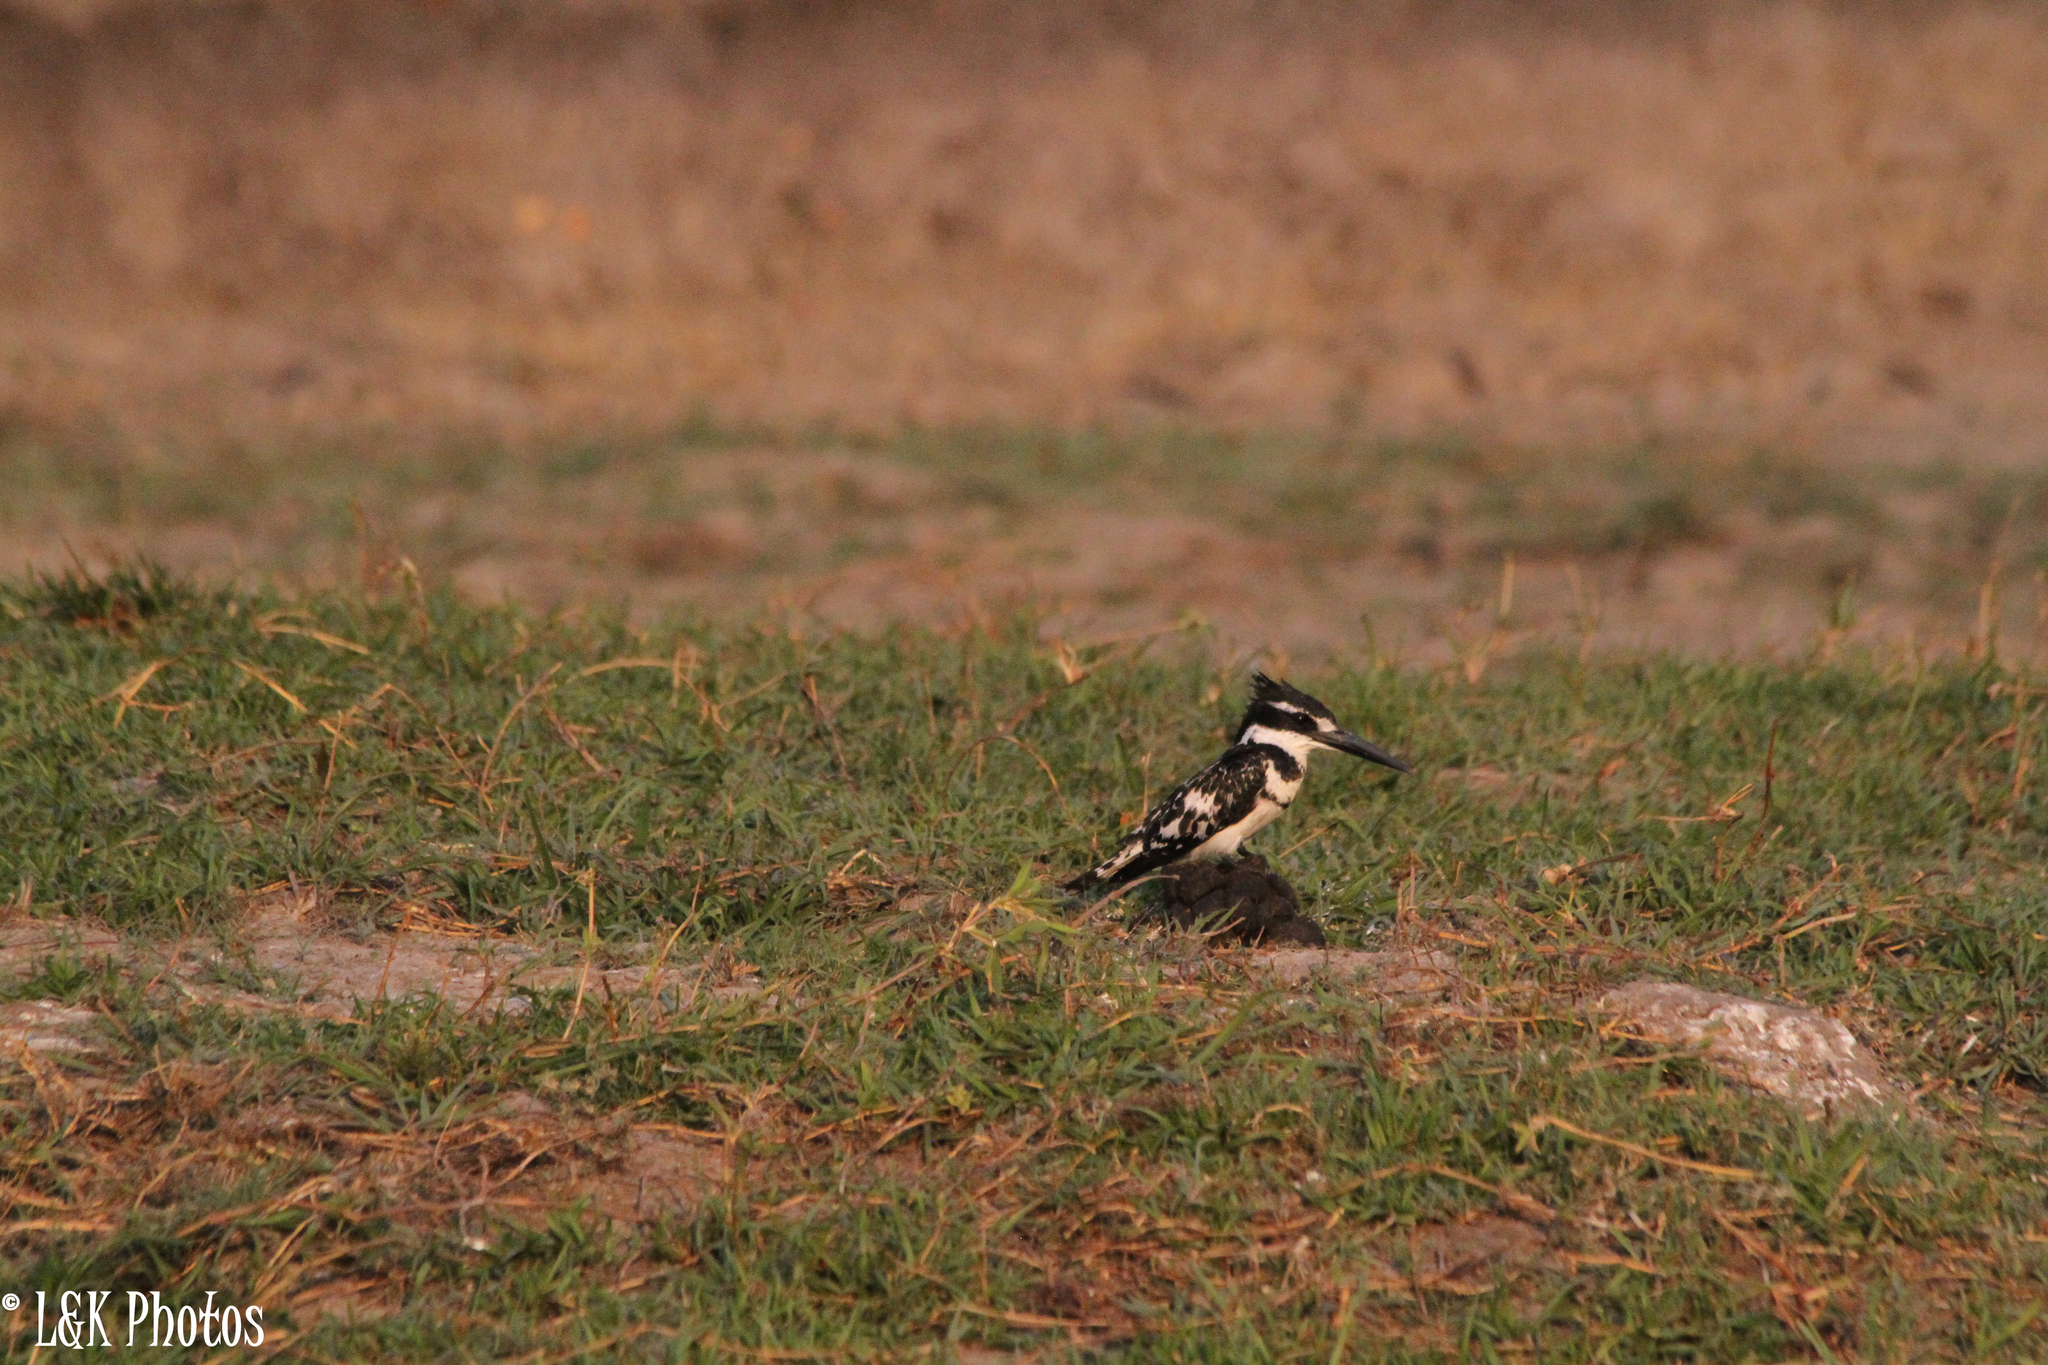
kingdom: Animalia
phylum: Chordata
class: Aves
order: Coraciiformes
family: Alcedinidae
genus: Ceryle
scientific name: Ceryle rudis
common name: Pied kingfisher
